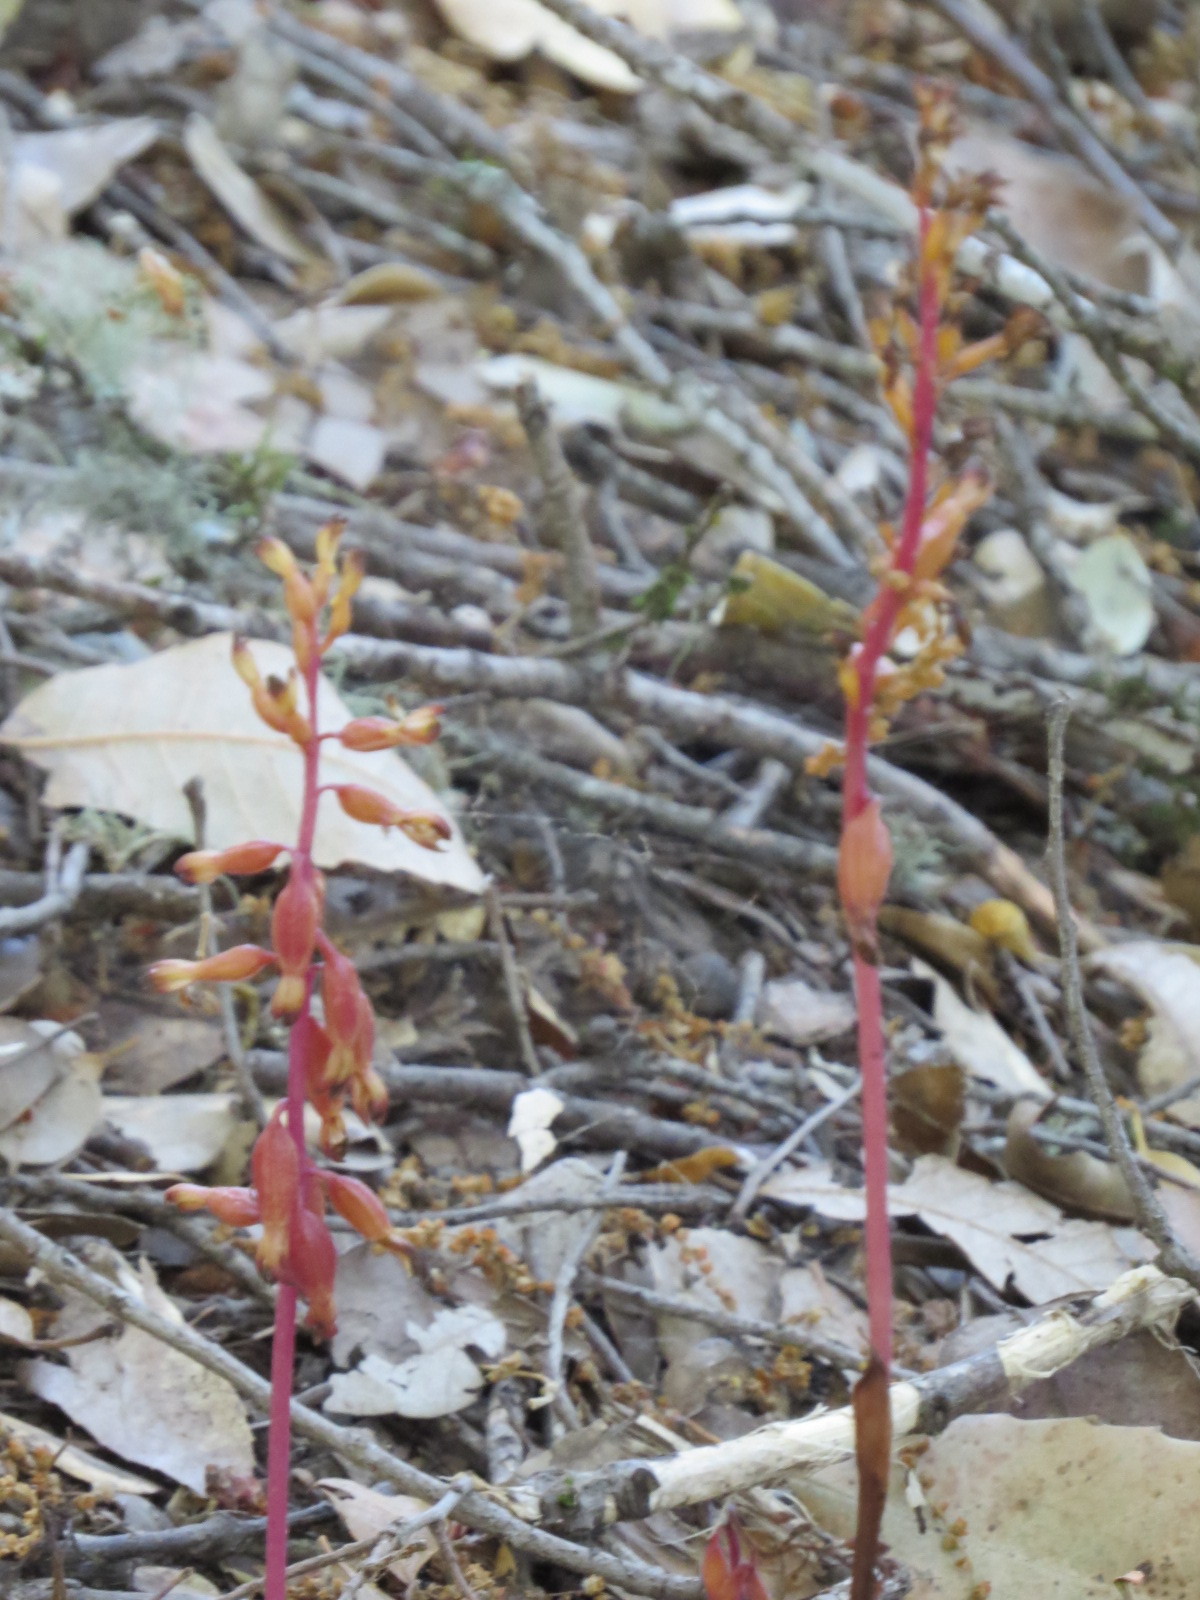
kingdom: Plantae
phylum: Tracheophyta
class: Liliopsida
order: Asparagales
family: Orchidaceae
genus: Corallorhiza
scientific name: Corallorhiza maculata
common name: Spotted coralroot
